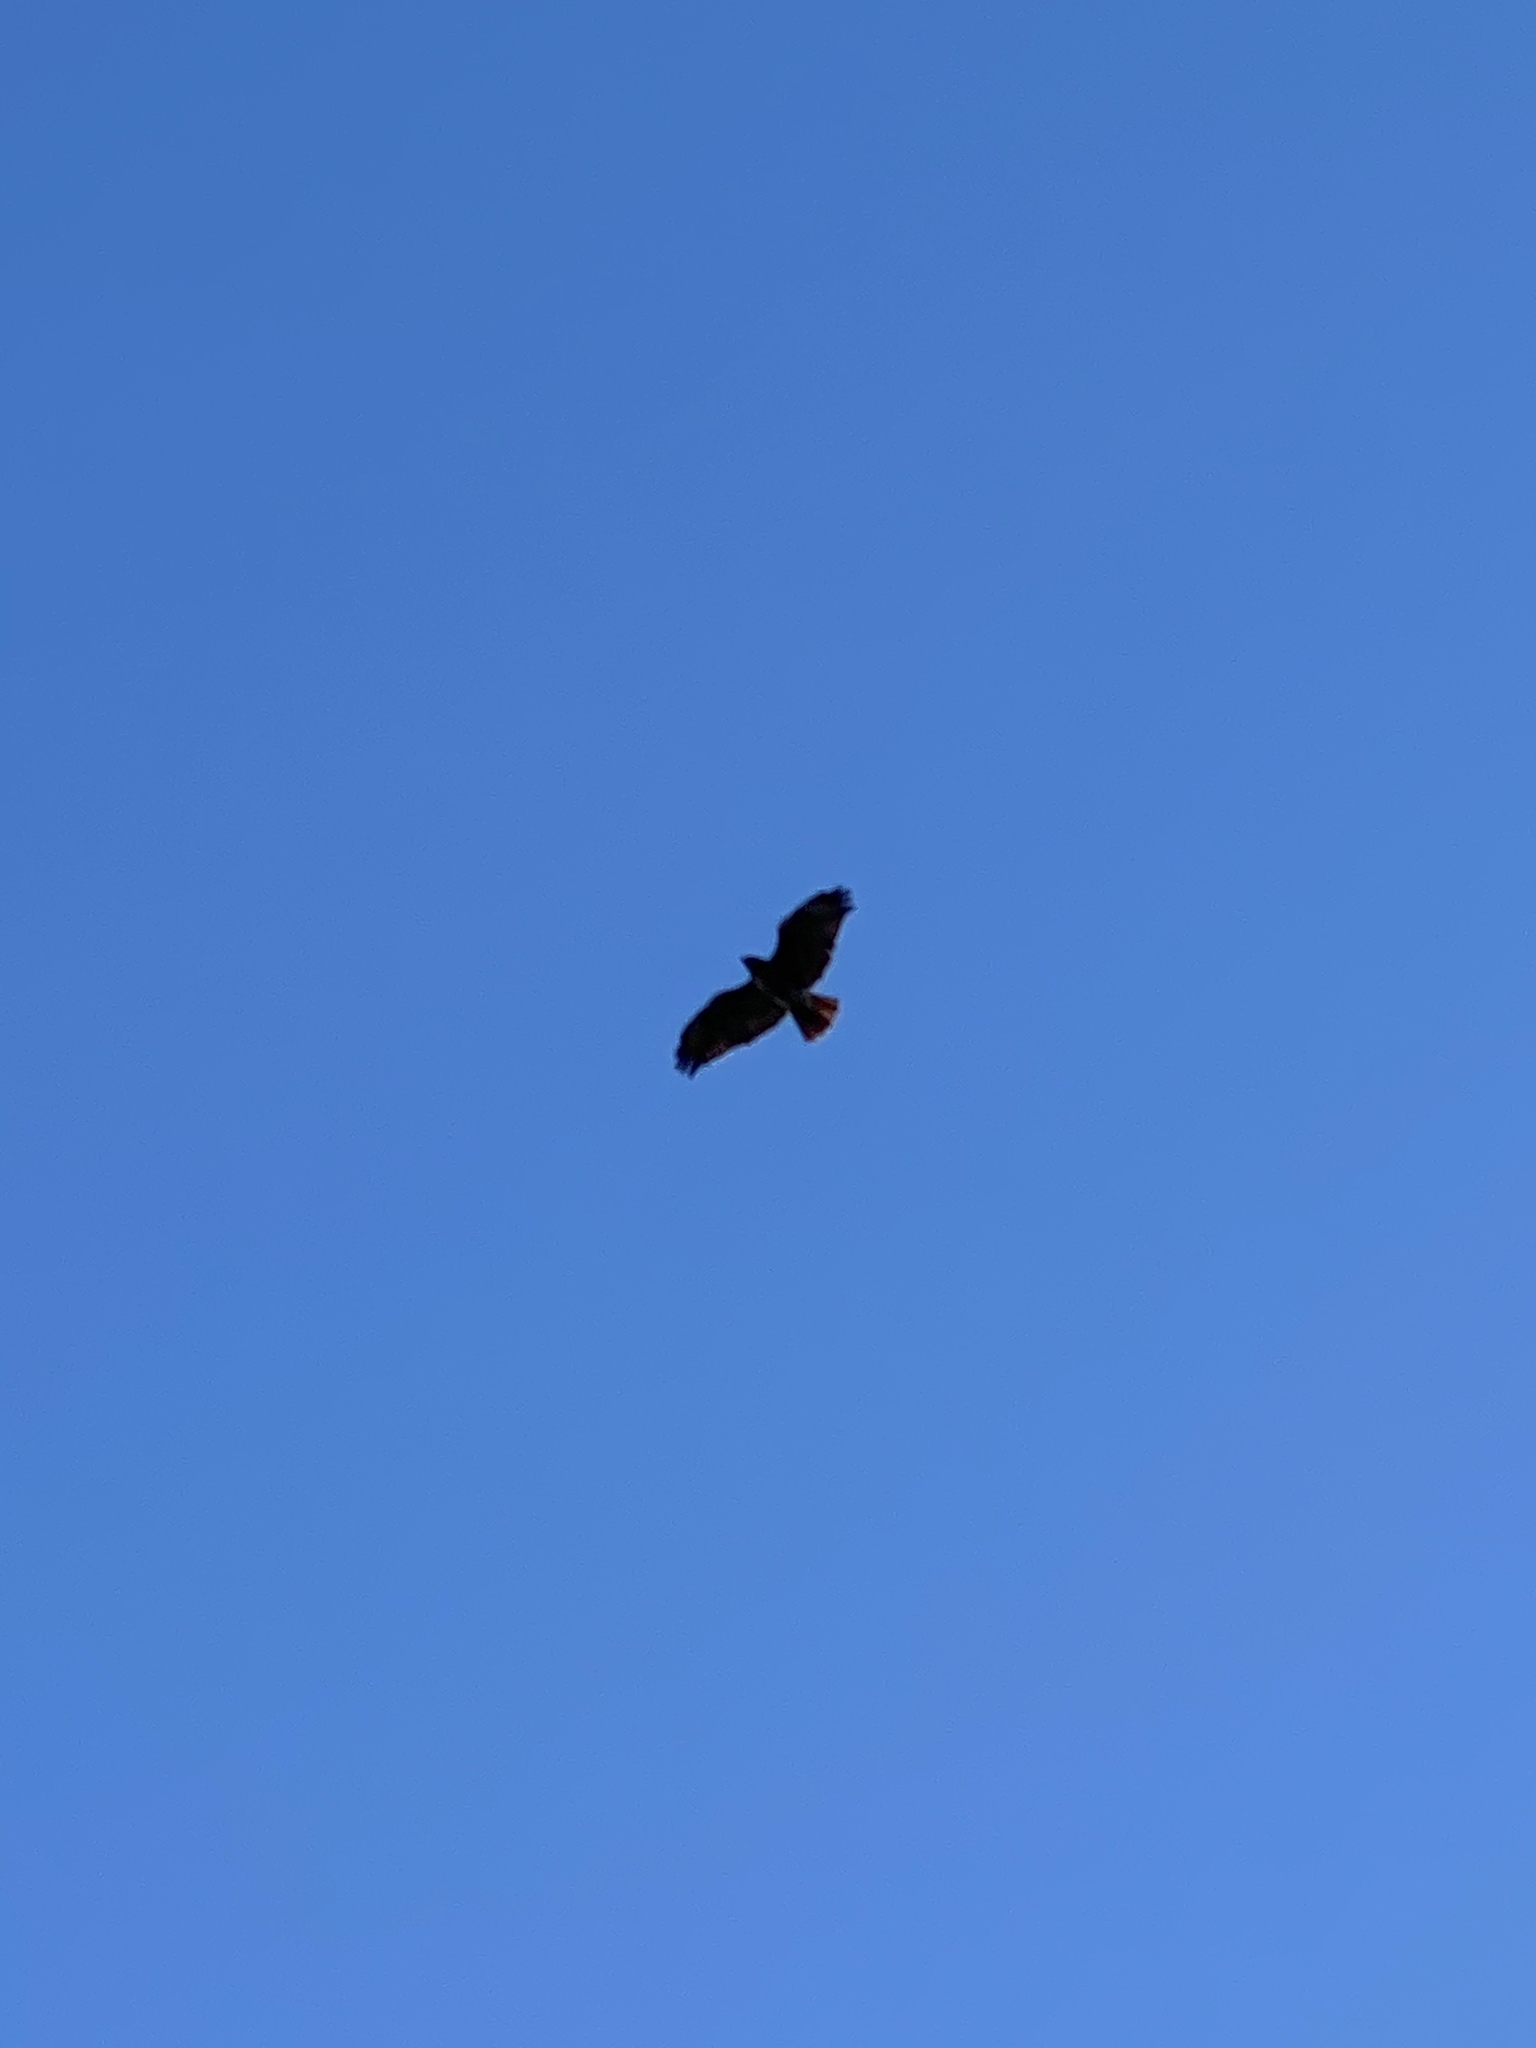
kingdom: Animalia
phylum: Chordata
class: Aves
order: Accipitriformes
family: Accipitridae
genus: Buteo
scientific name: Buteo jamaicensis
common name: Red-tailed hawk
